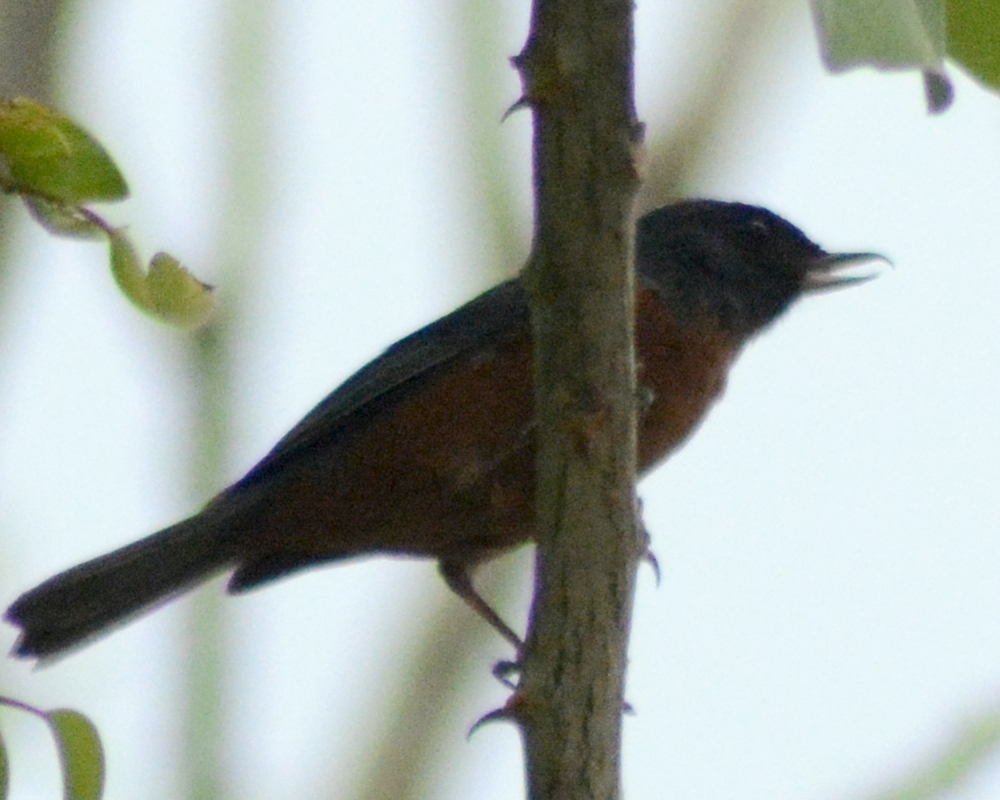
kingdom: Animalia
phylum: Chordata
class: Aves
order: Passeriformes
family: Thraupidae
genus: Diglossa
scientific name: Diglossa baritula
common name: Cinnamon-bellied flowerpiercer
